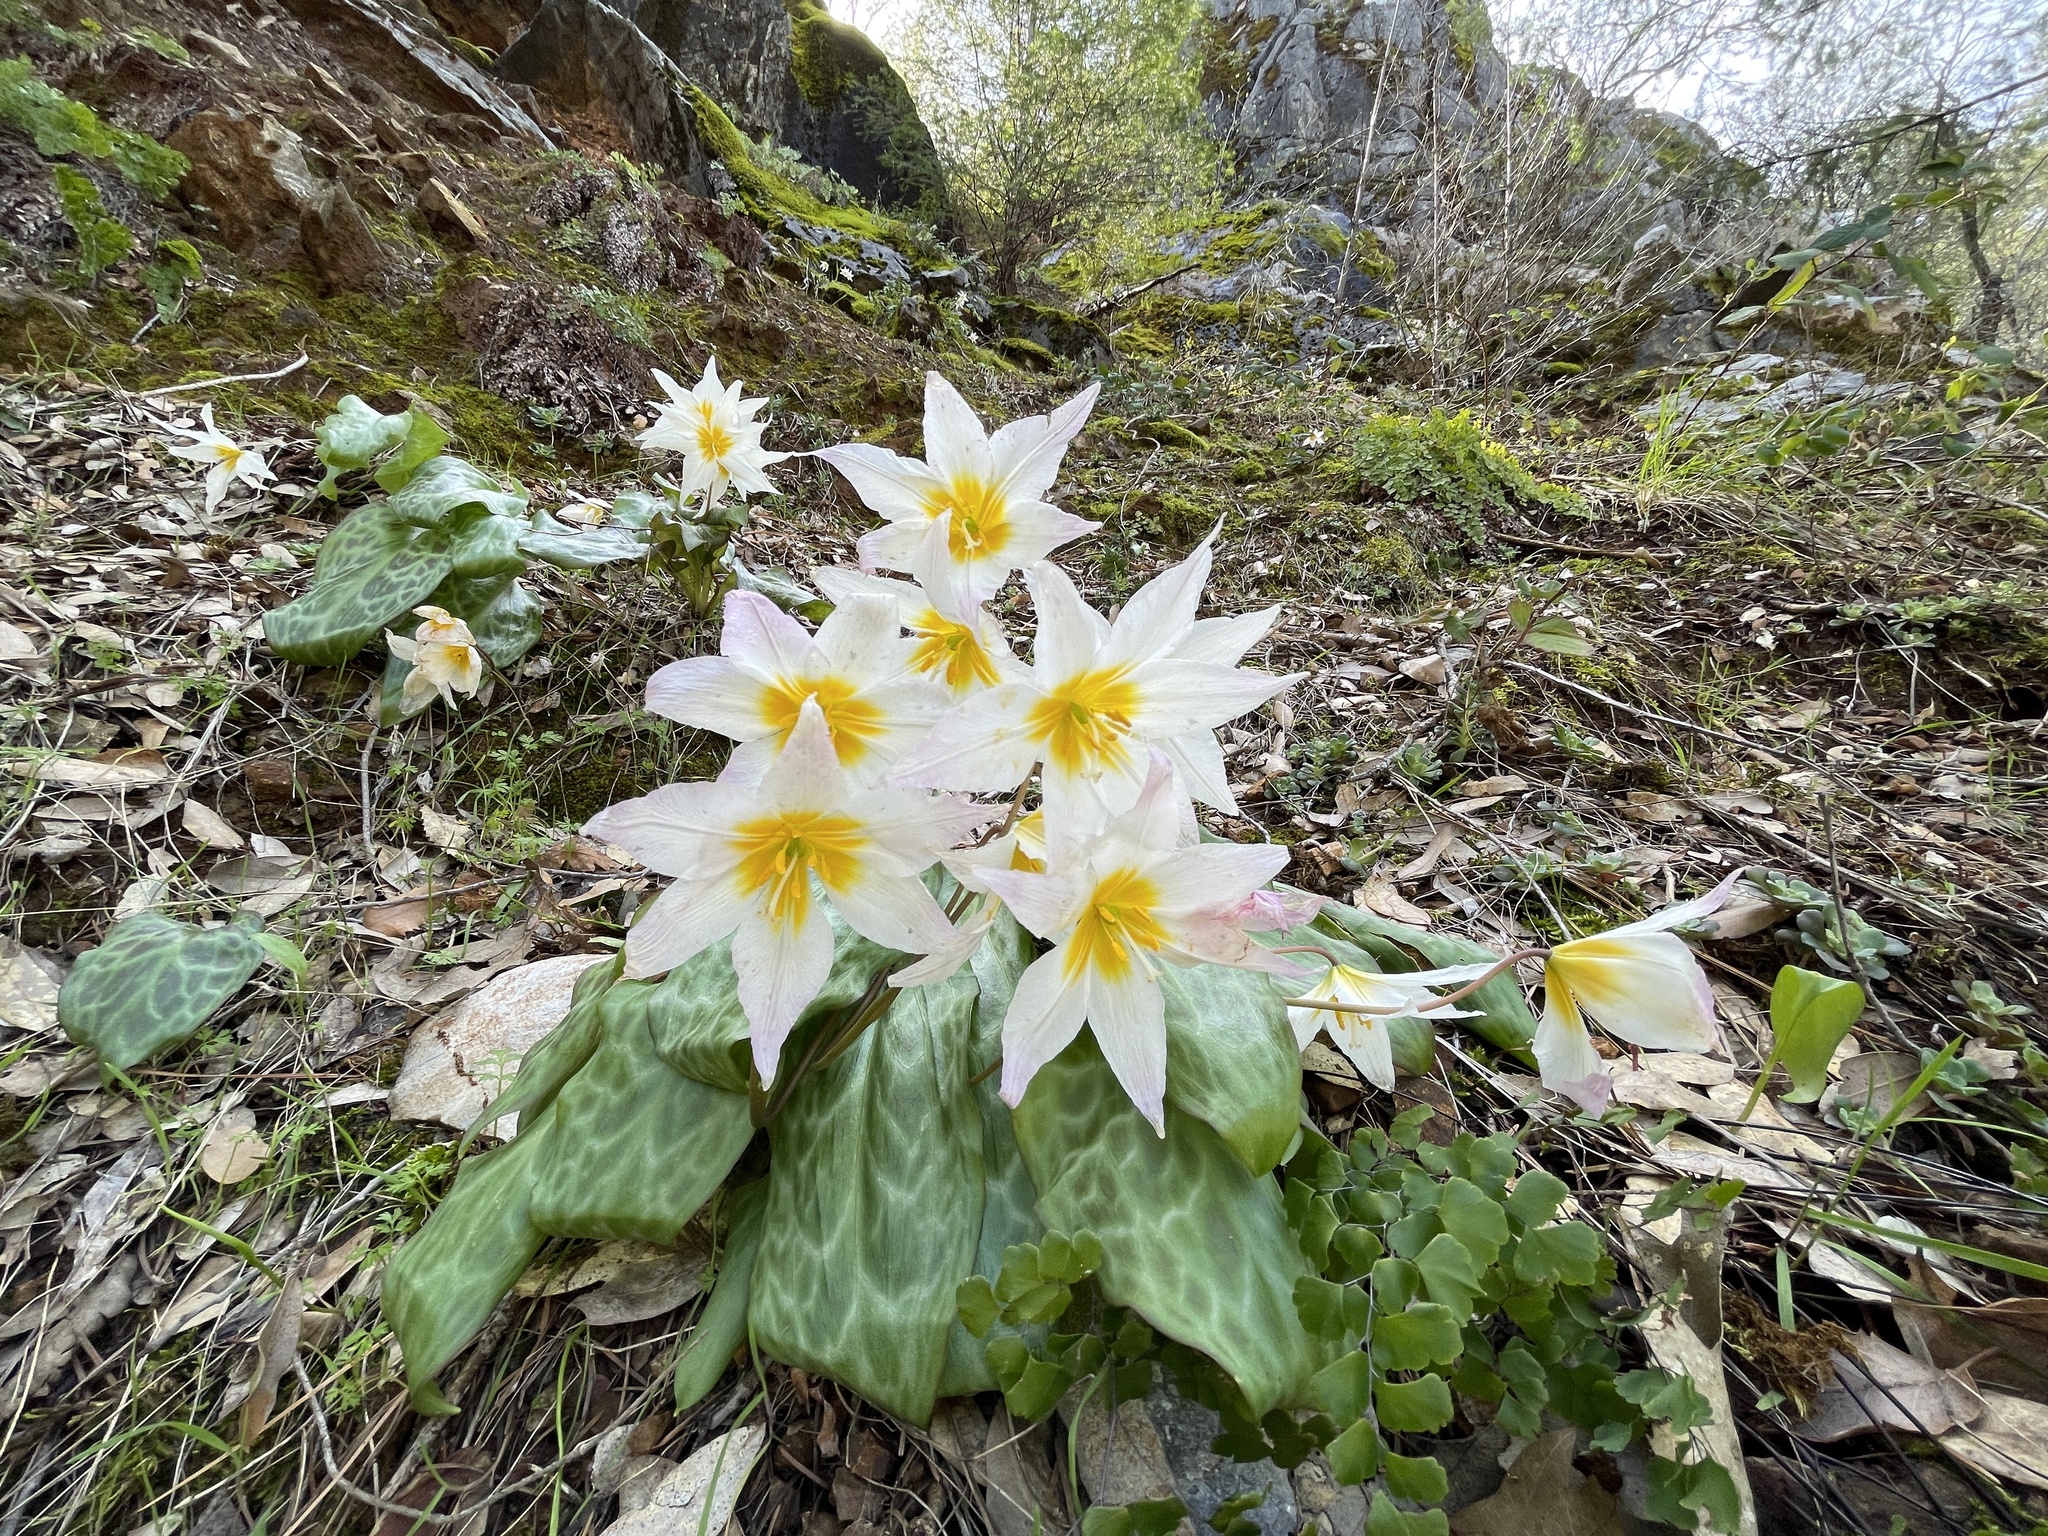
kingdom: Plantae
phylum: Tracheophyta
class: Liliopsida
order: Liliales
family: Liliaceae
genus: Erythronium
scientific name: Erythronium shastense
